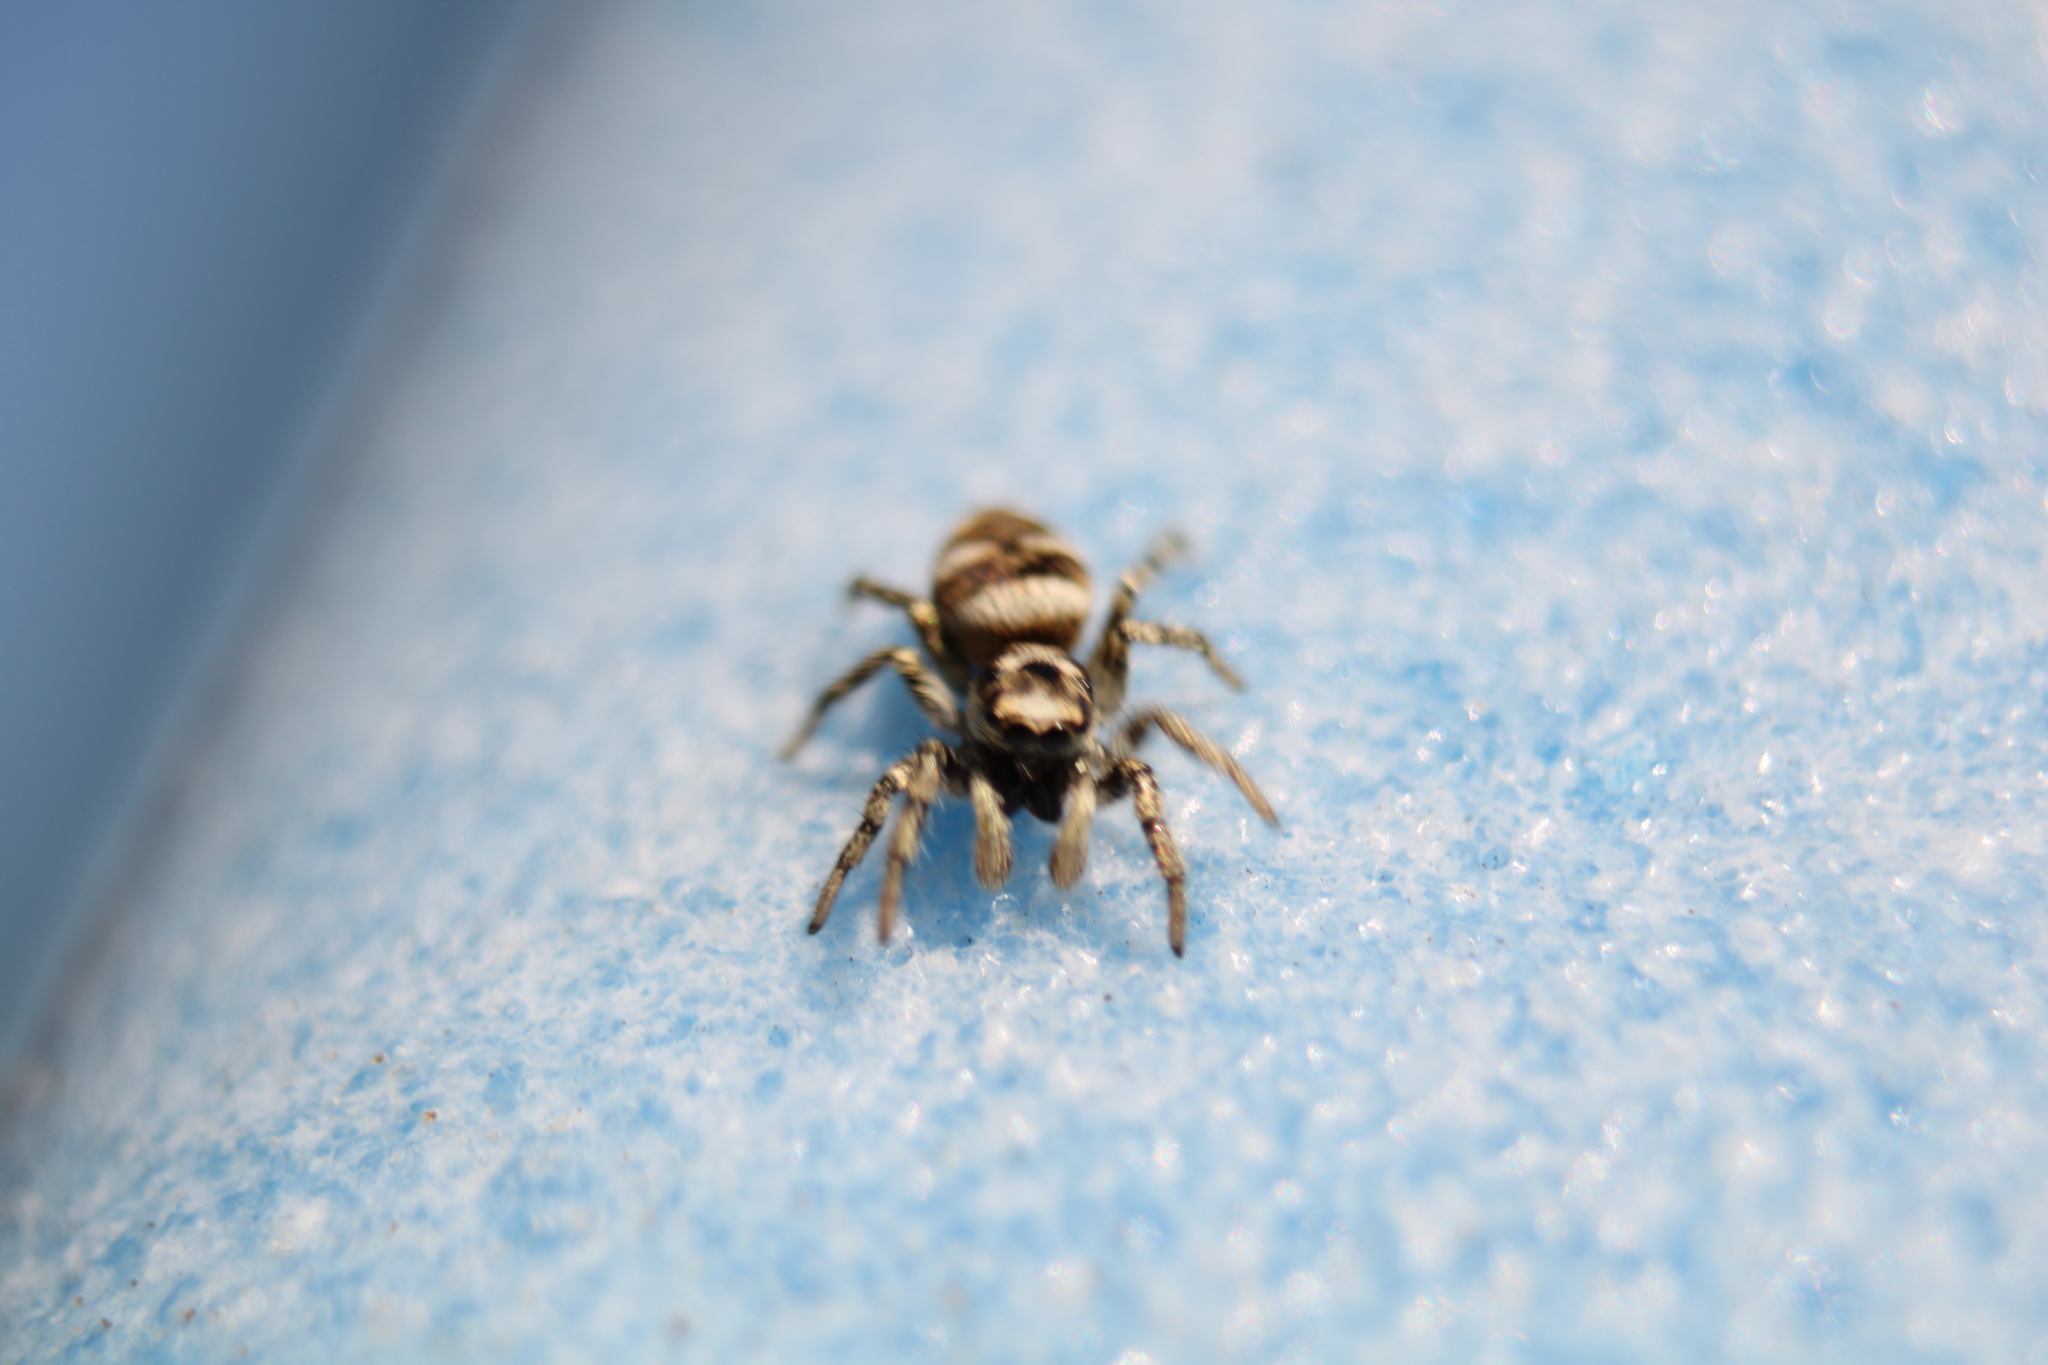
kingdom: Animalia
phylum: Arthropoda
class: Arachnida
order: Araneae
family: Salticidae
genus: Salticus
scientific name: Salticus scenicus
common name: Zebra jumper
